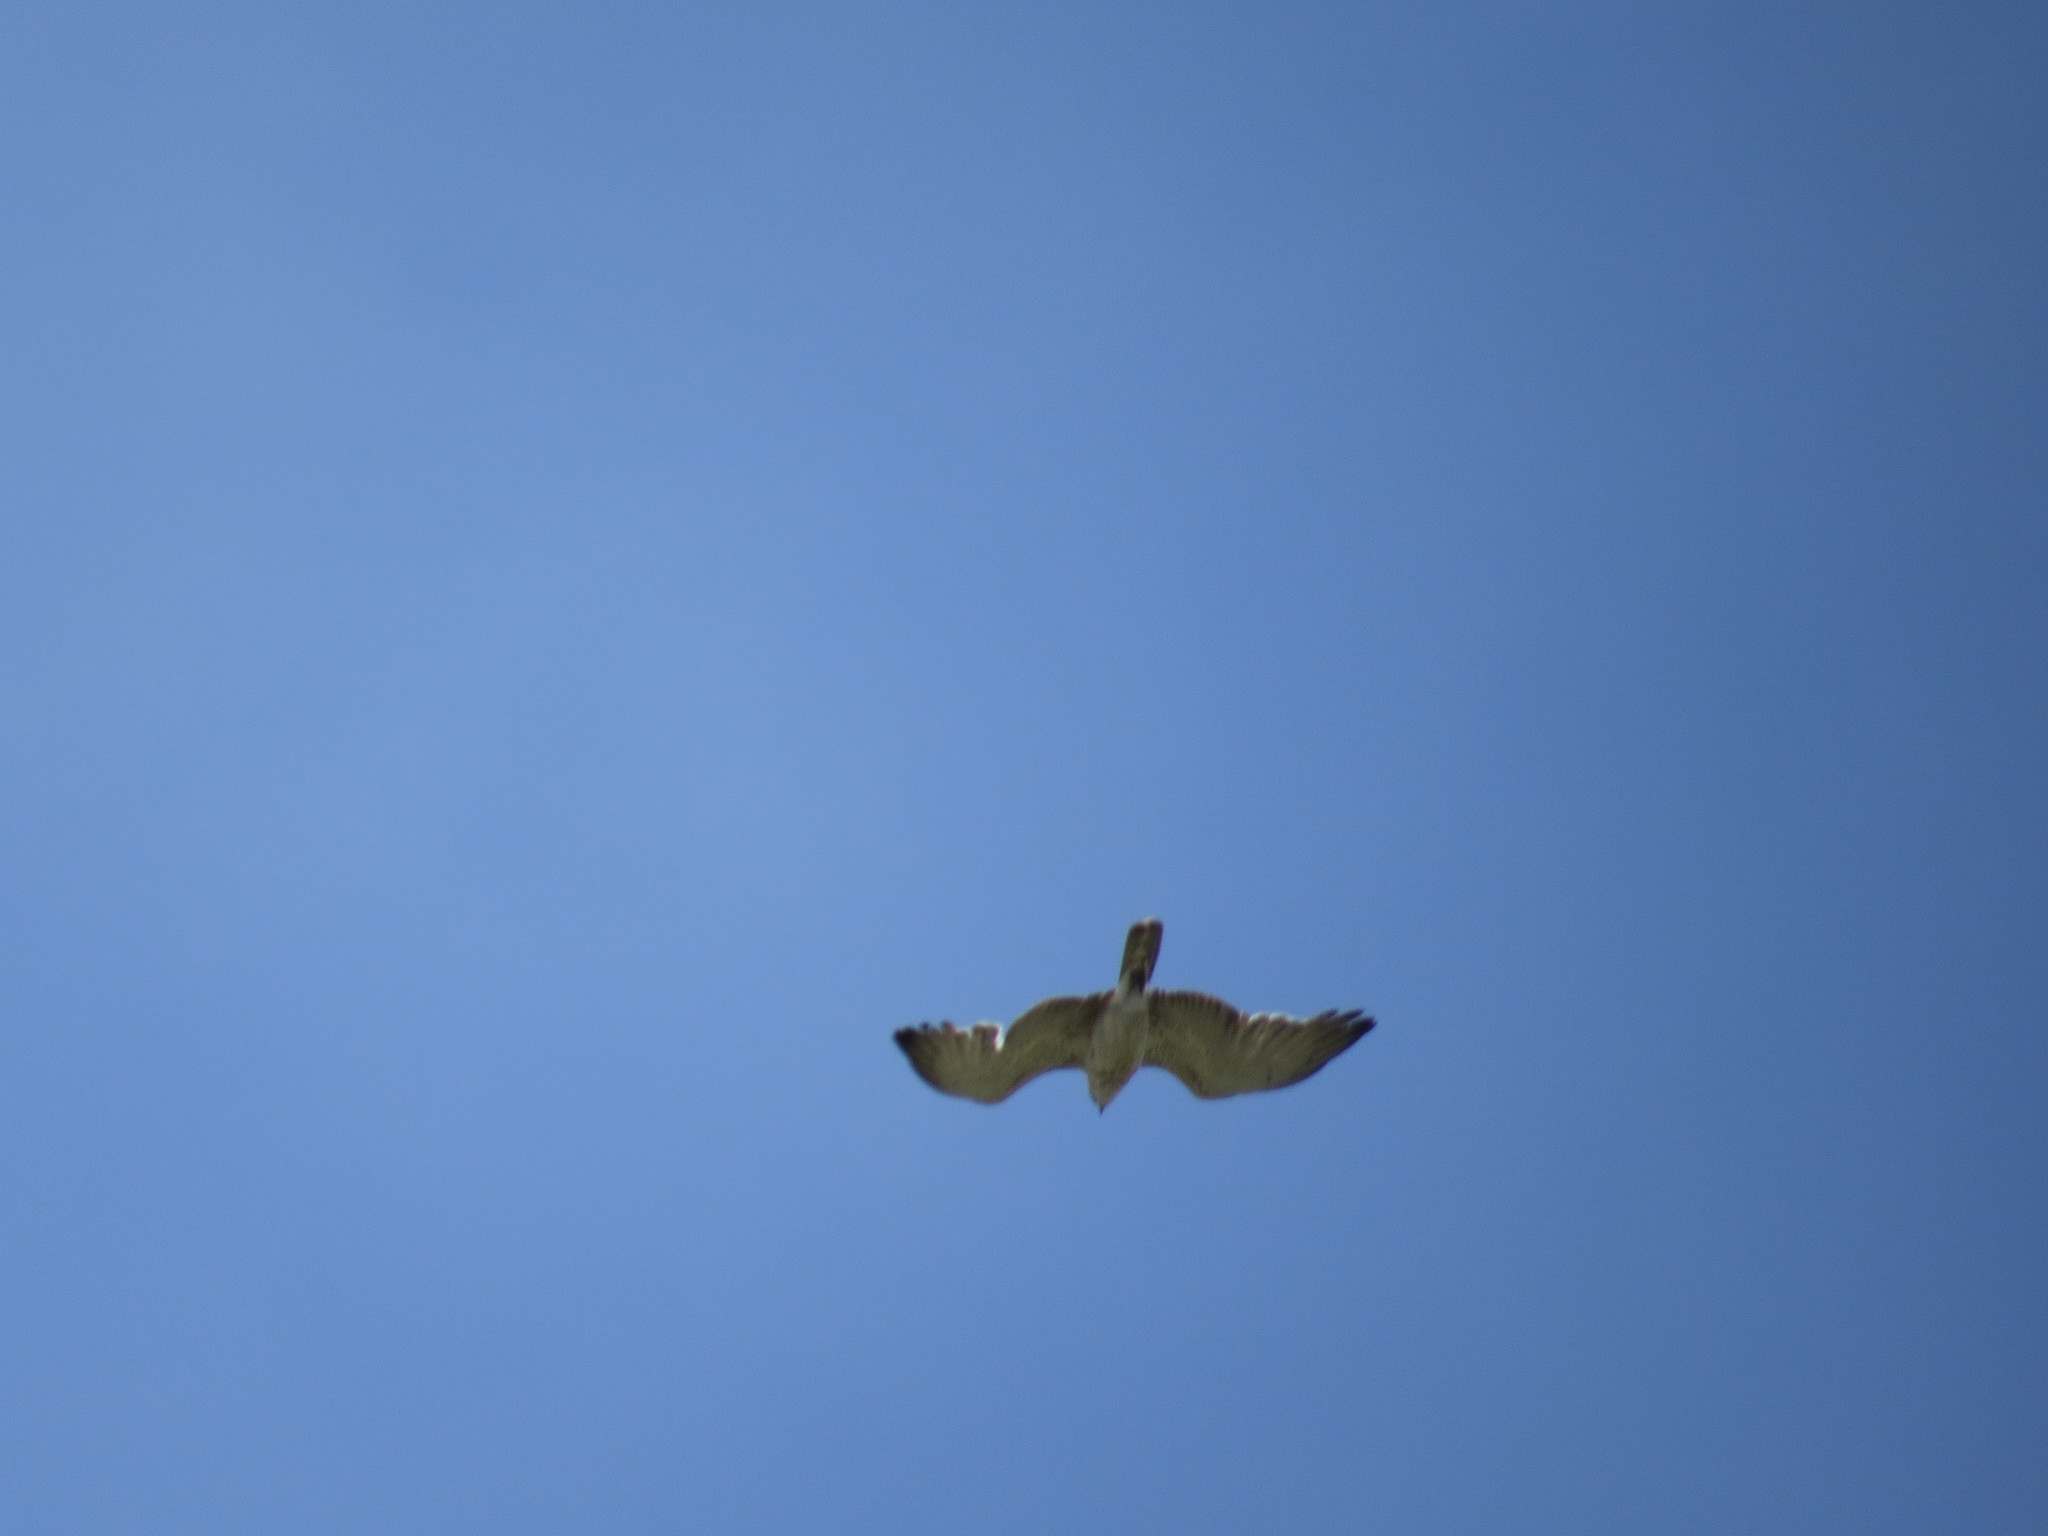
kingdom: Animalia
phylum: Chordata
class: Aves
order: Accipitriformes
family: Accipitridae
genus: Circaetus
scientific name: Circaetus gallicus
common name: Short-toed snake eagle
